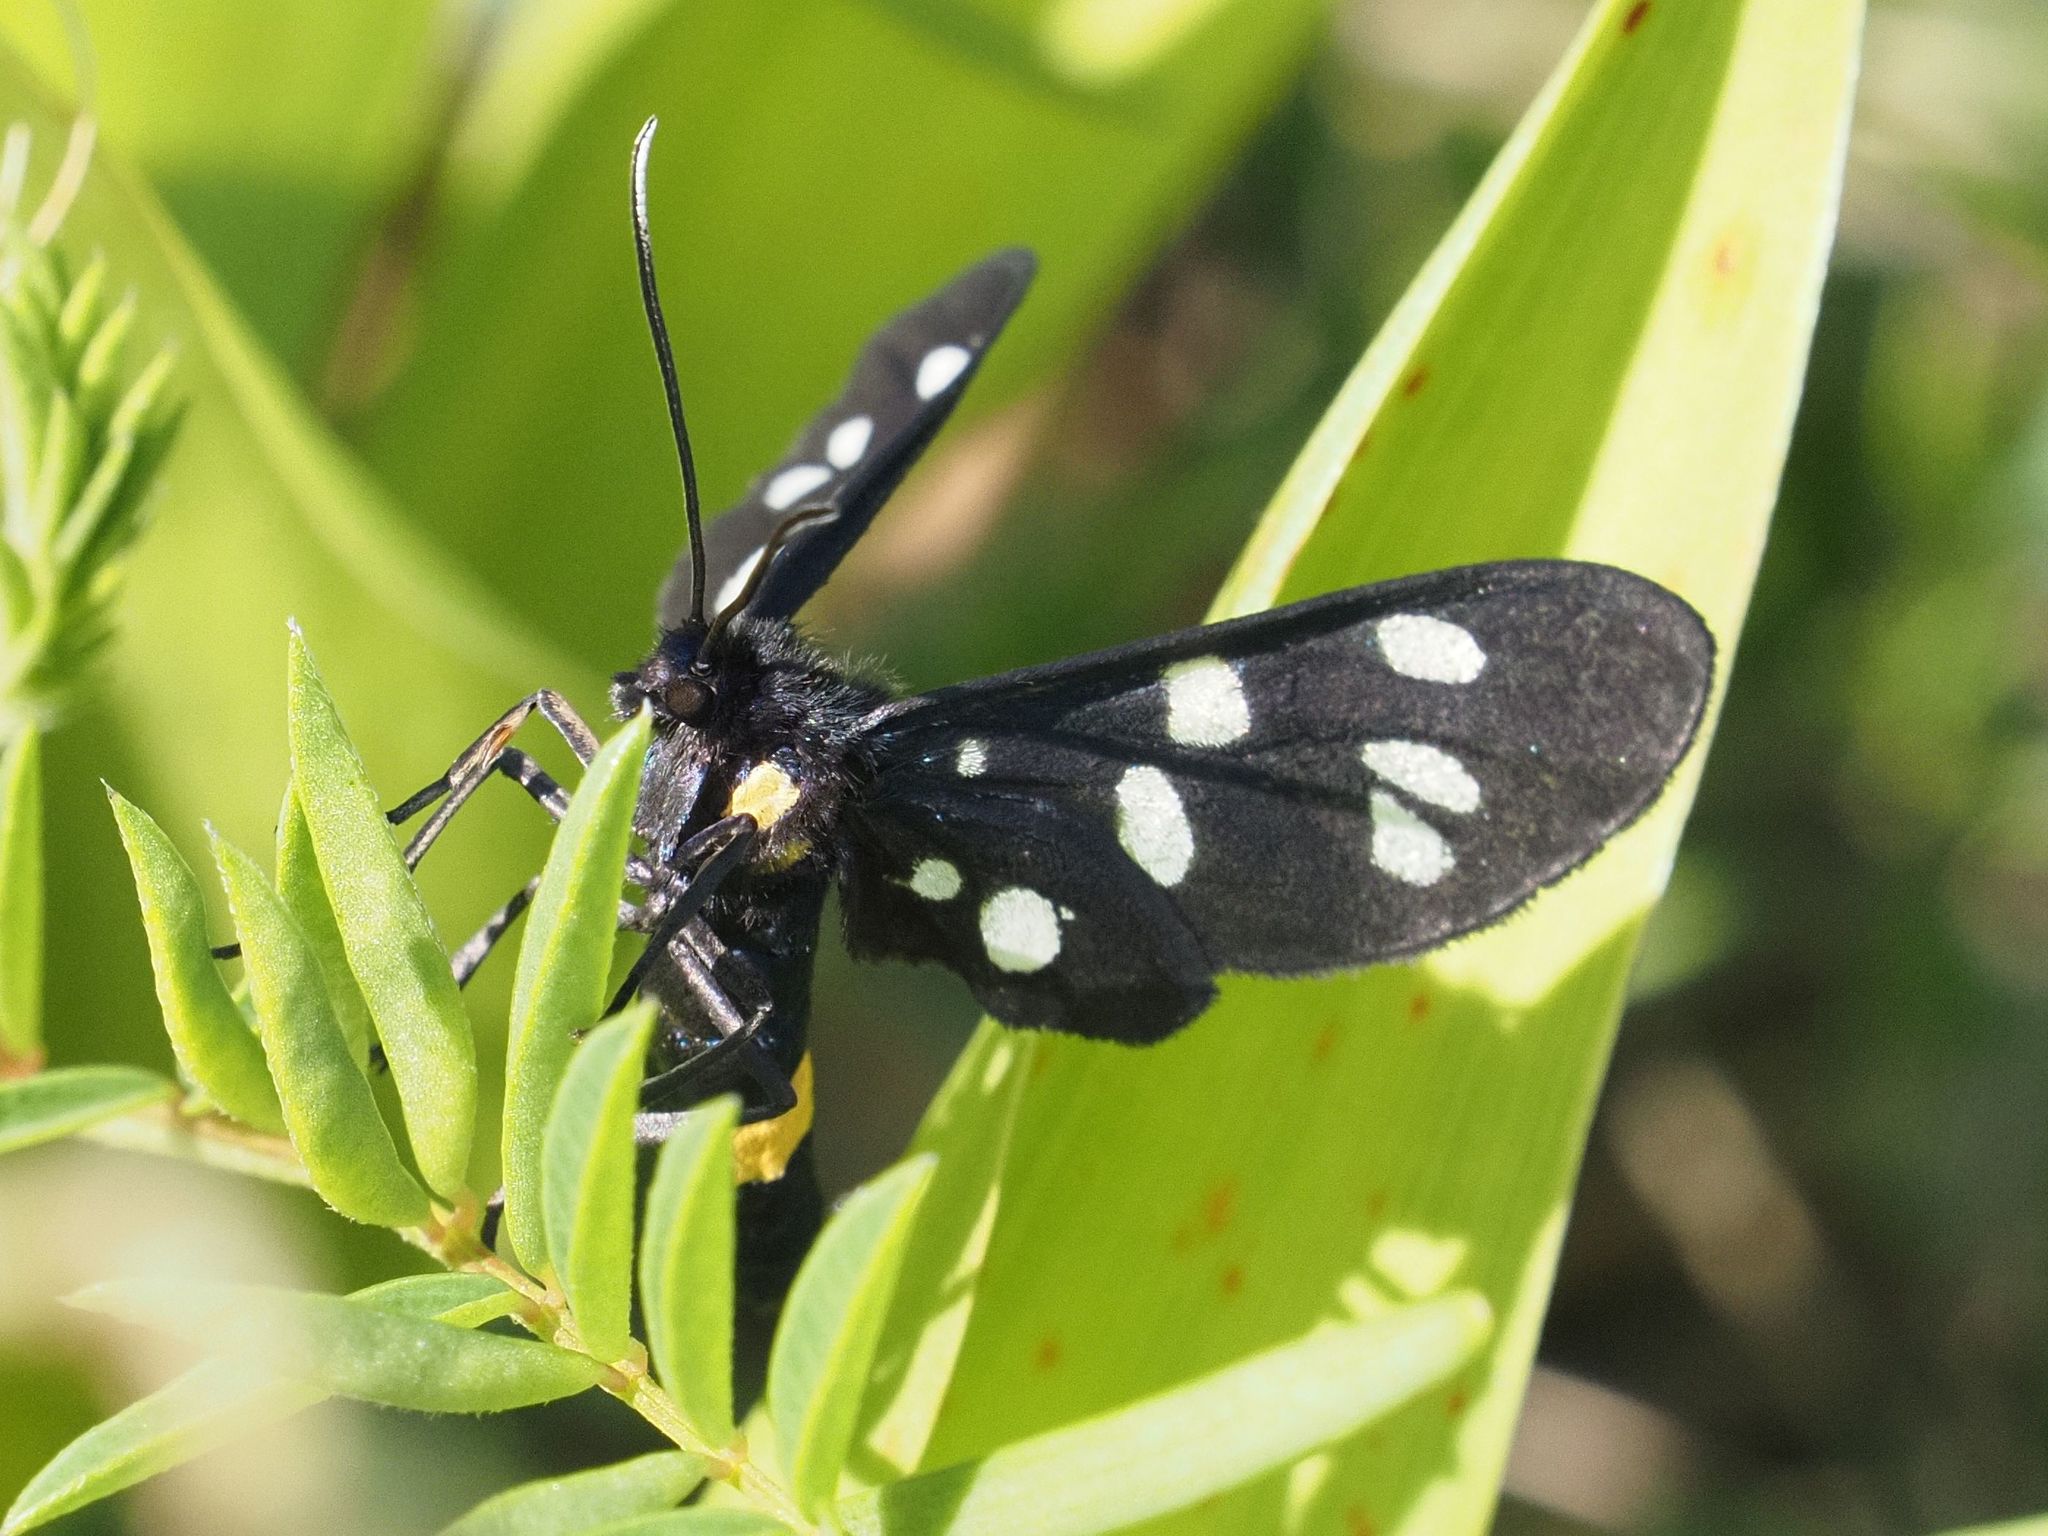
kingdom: Animalia
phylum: Arthropoda
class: Insecta
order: Lepidoptera
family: Erebidae
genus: Amata
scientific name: Amata phegea
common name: Nine-spotted
